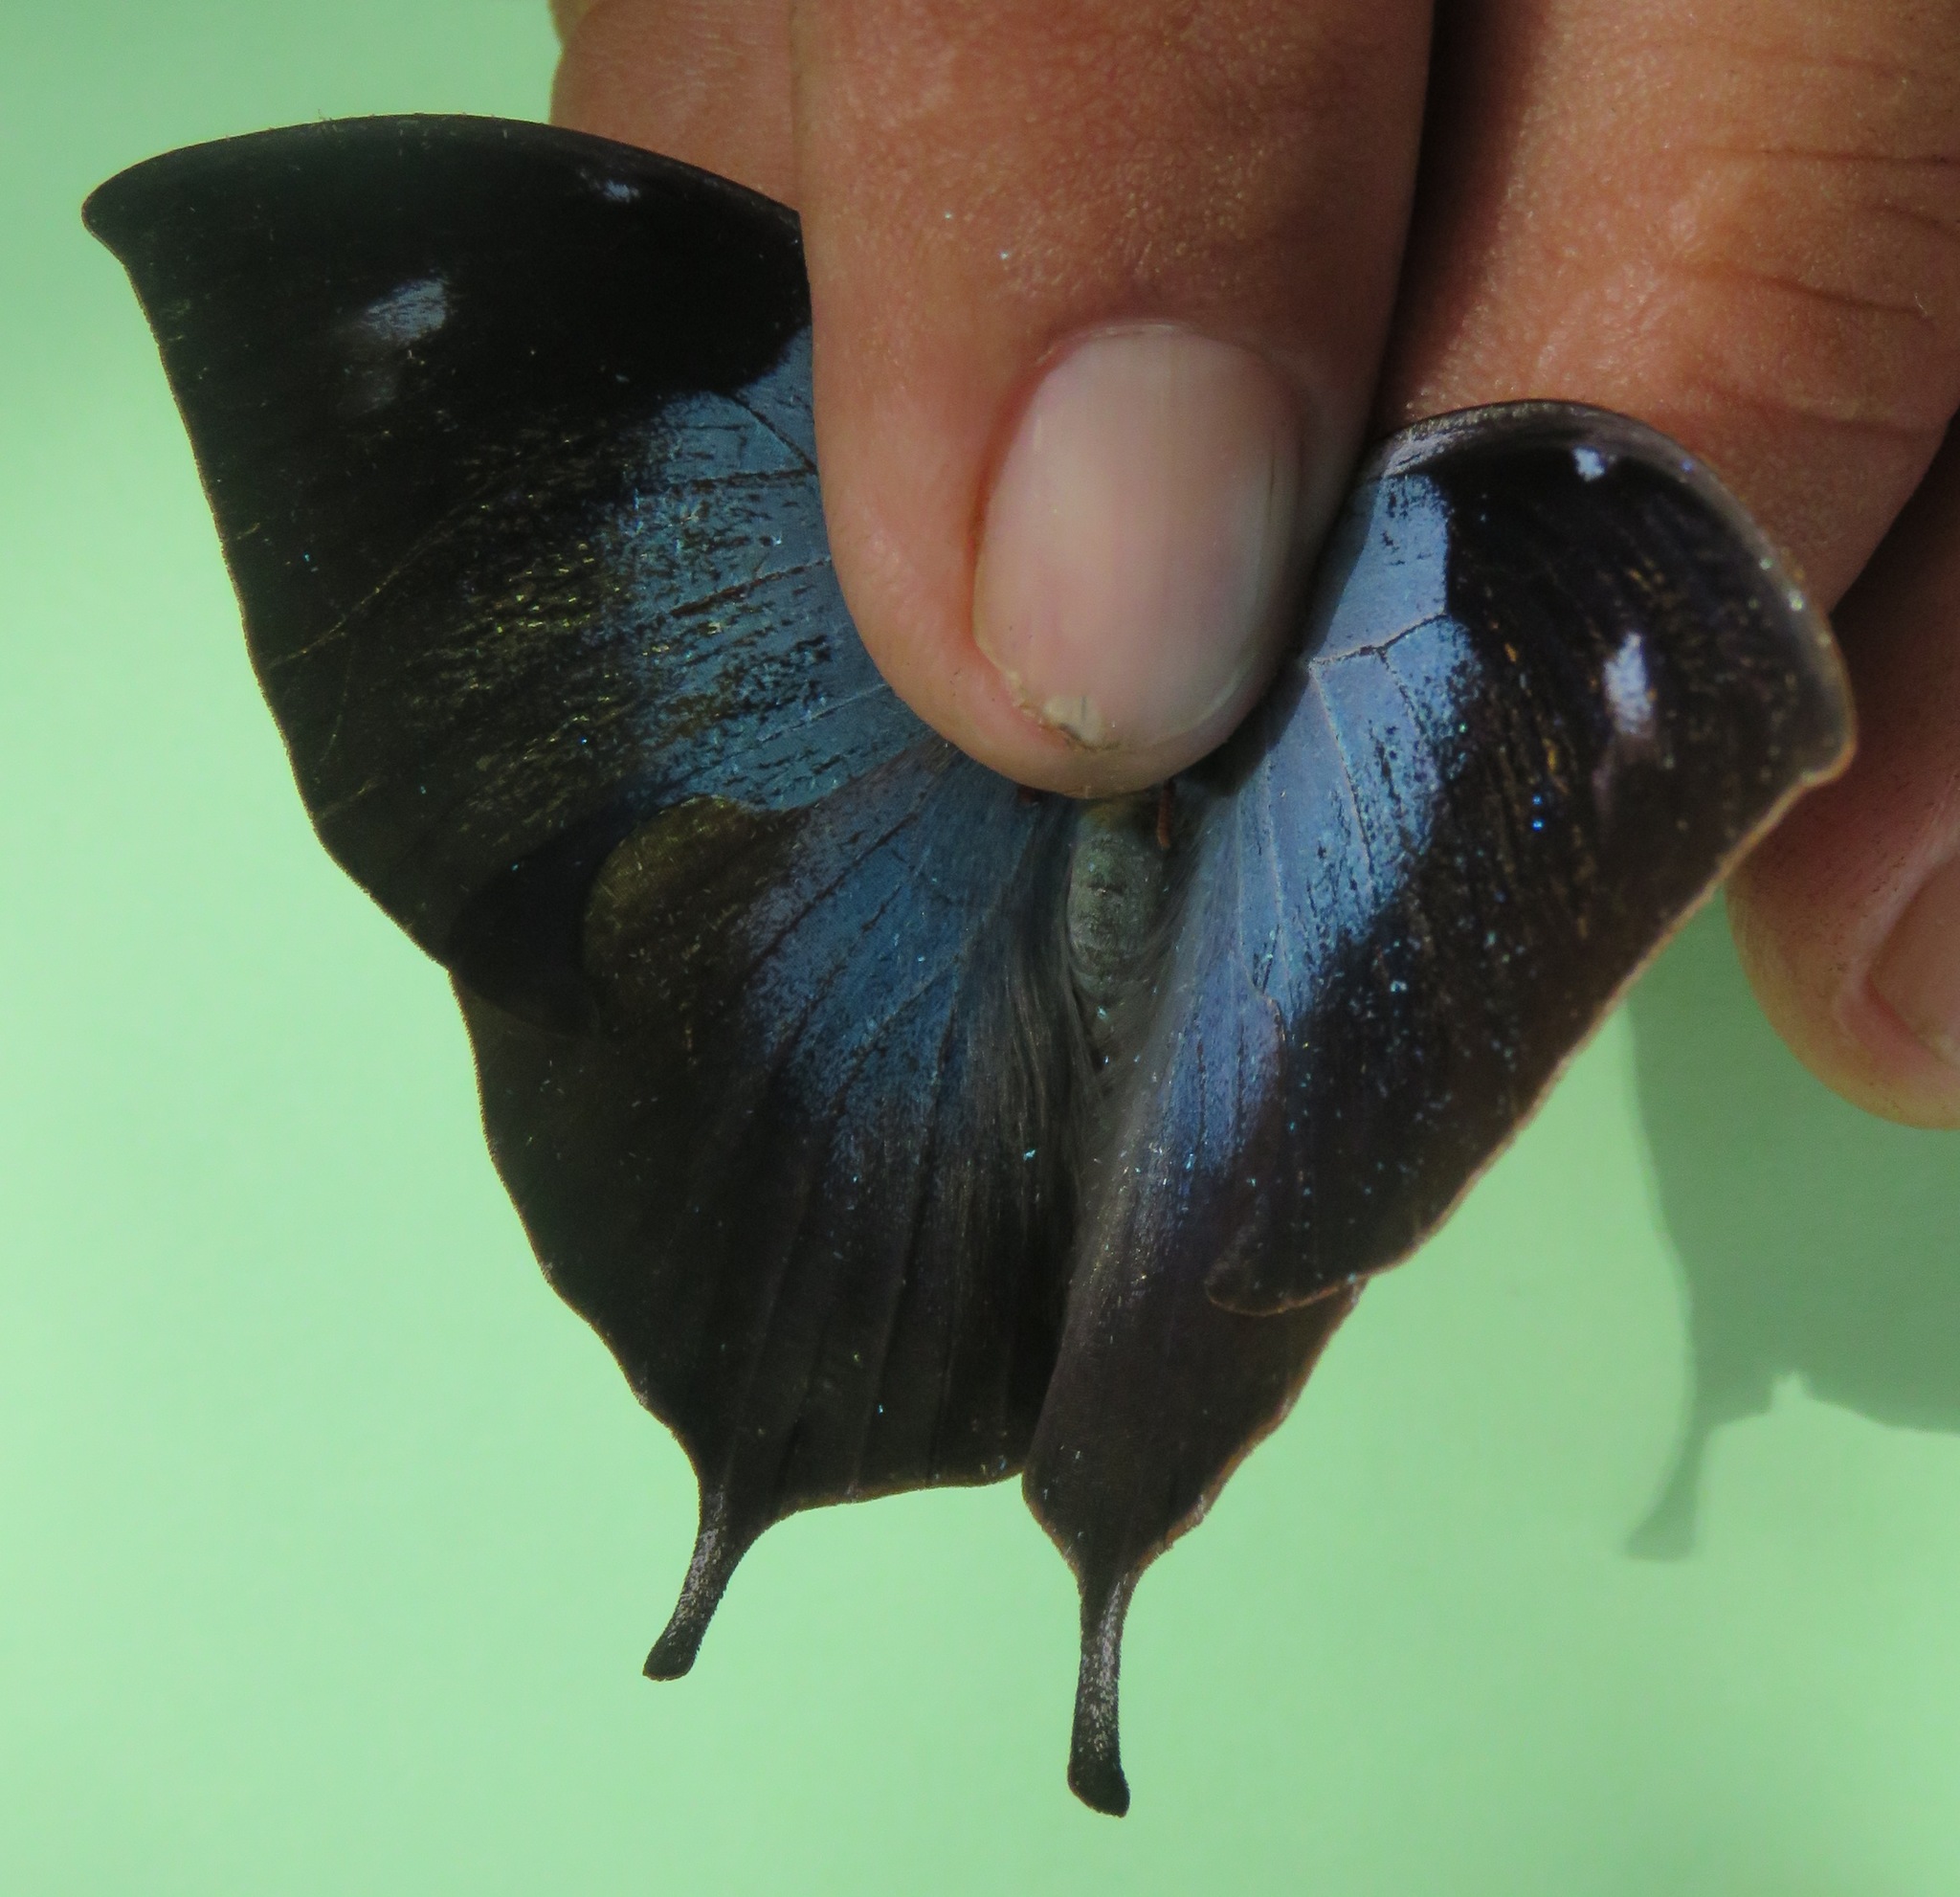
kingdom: Animalia
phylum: Arthropoda
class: Insecta
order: Lepidoptera
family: Nymphalidae
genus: Memphis
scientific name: Memphis moruus
